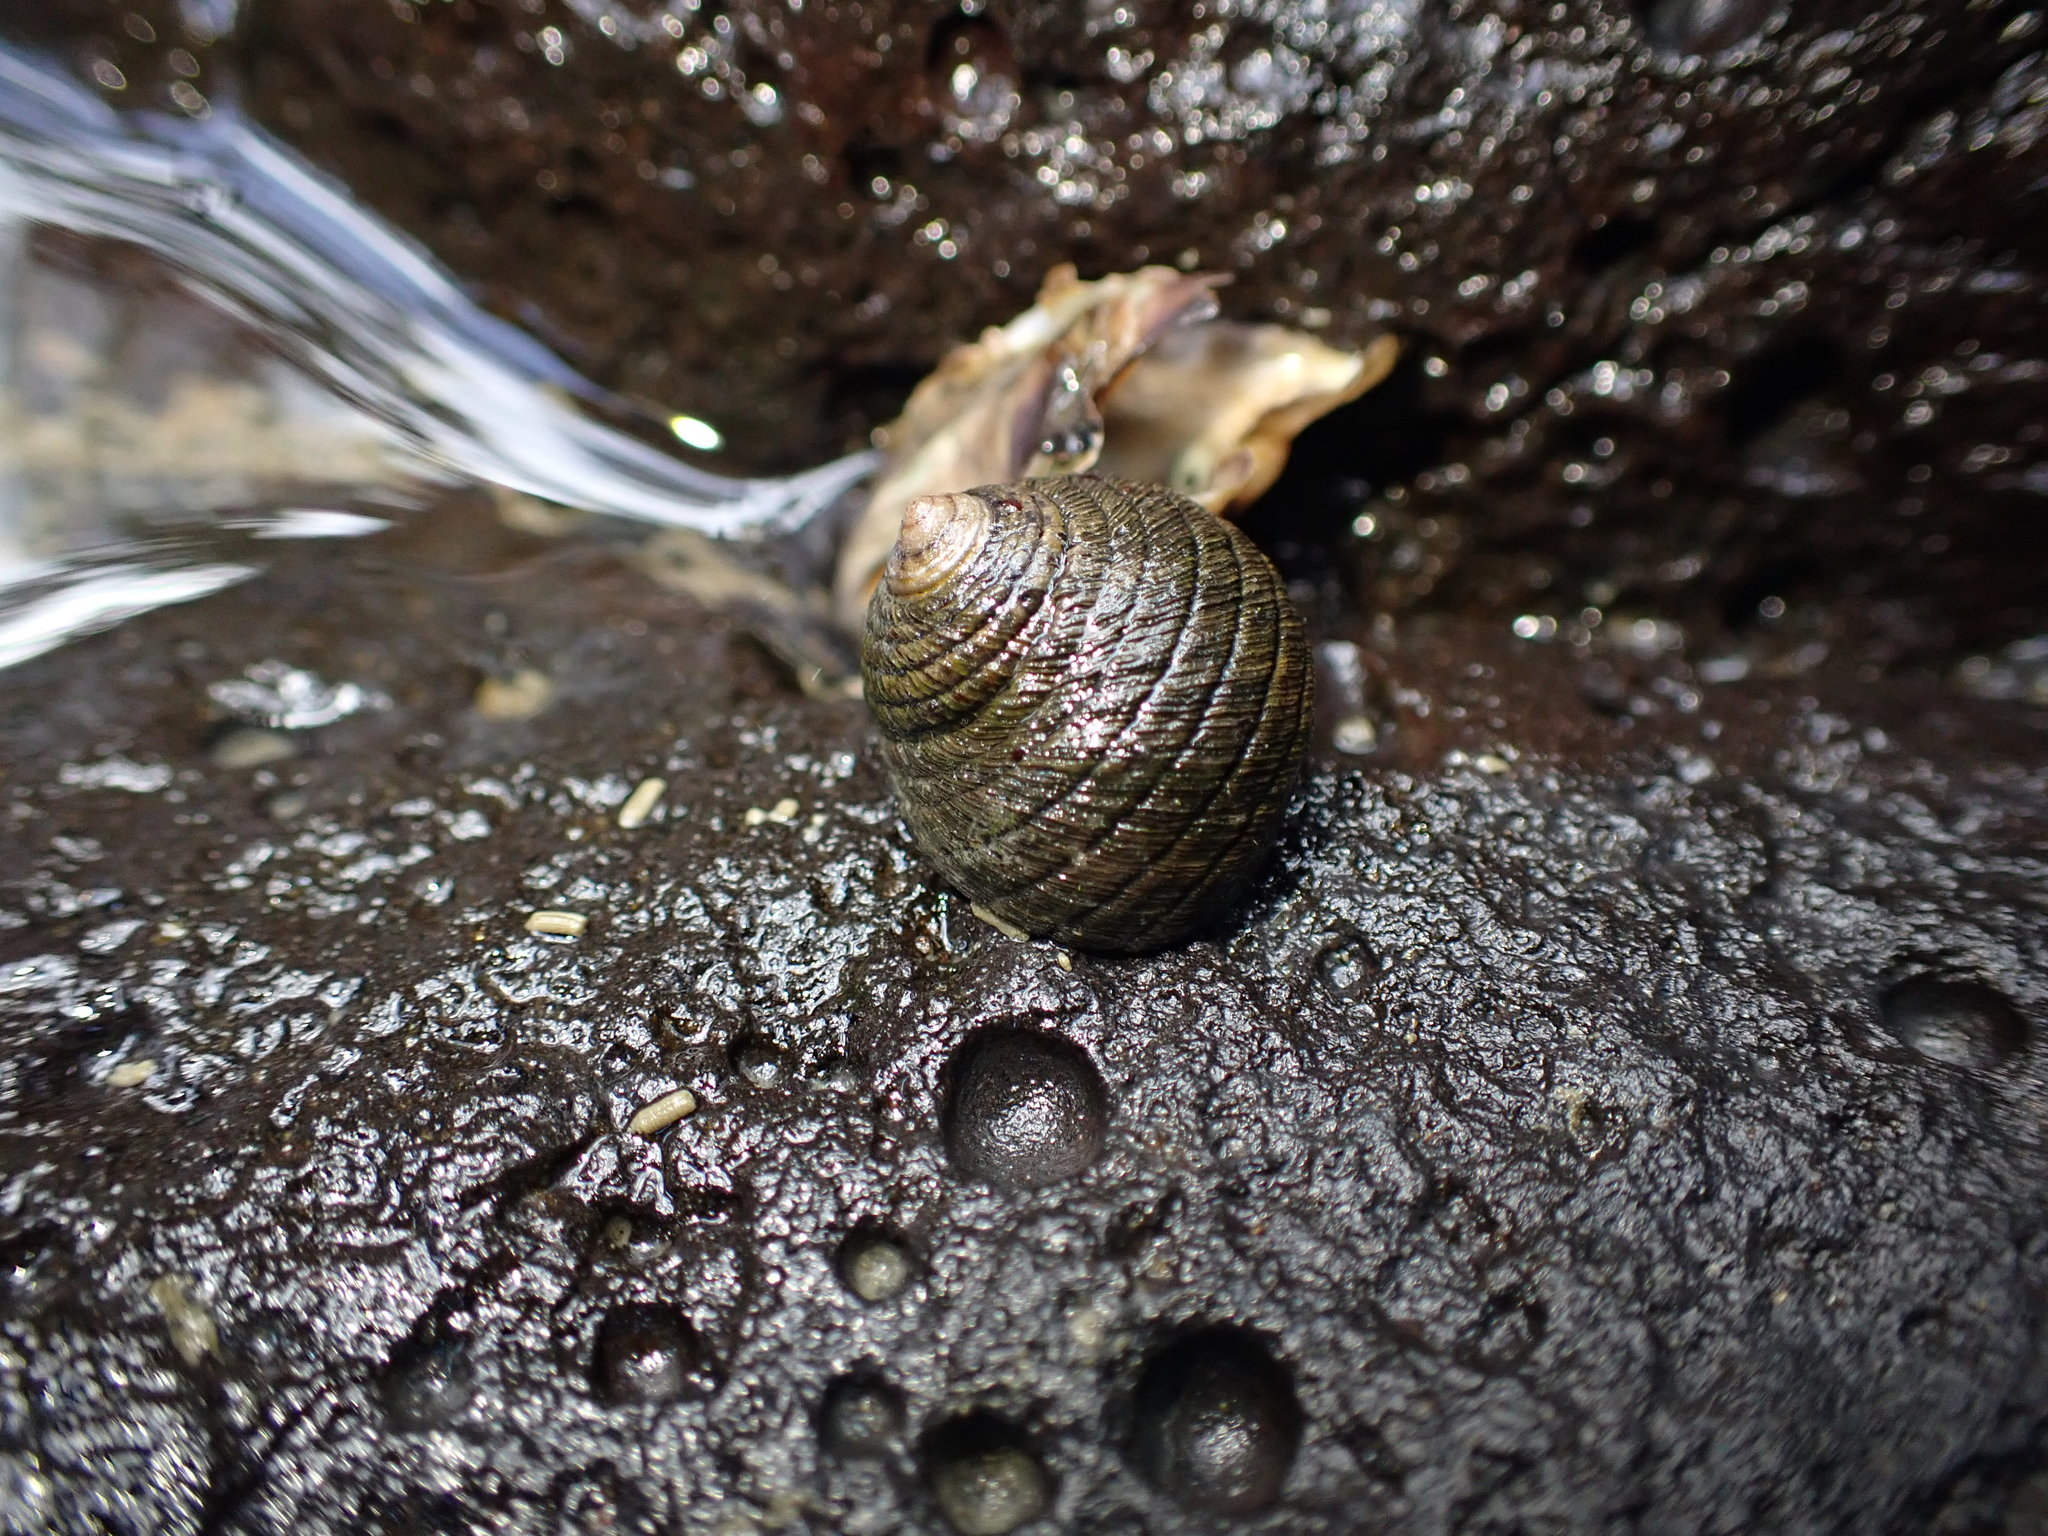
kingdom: Animalia
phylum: Mollusca
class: Gastropoda
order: Trochida
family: Trochidae
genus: Diloma
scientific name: Diloma aethiops
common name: Scorched monodont
